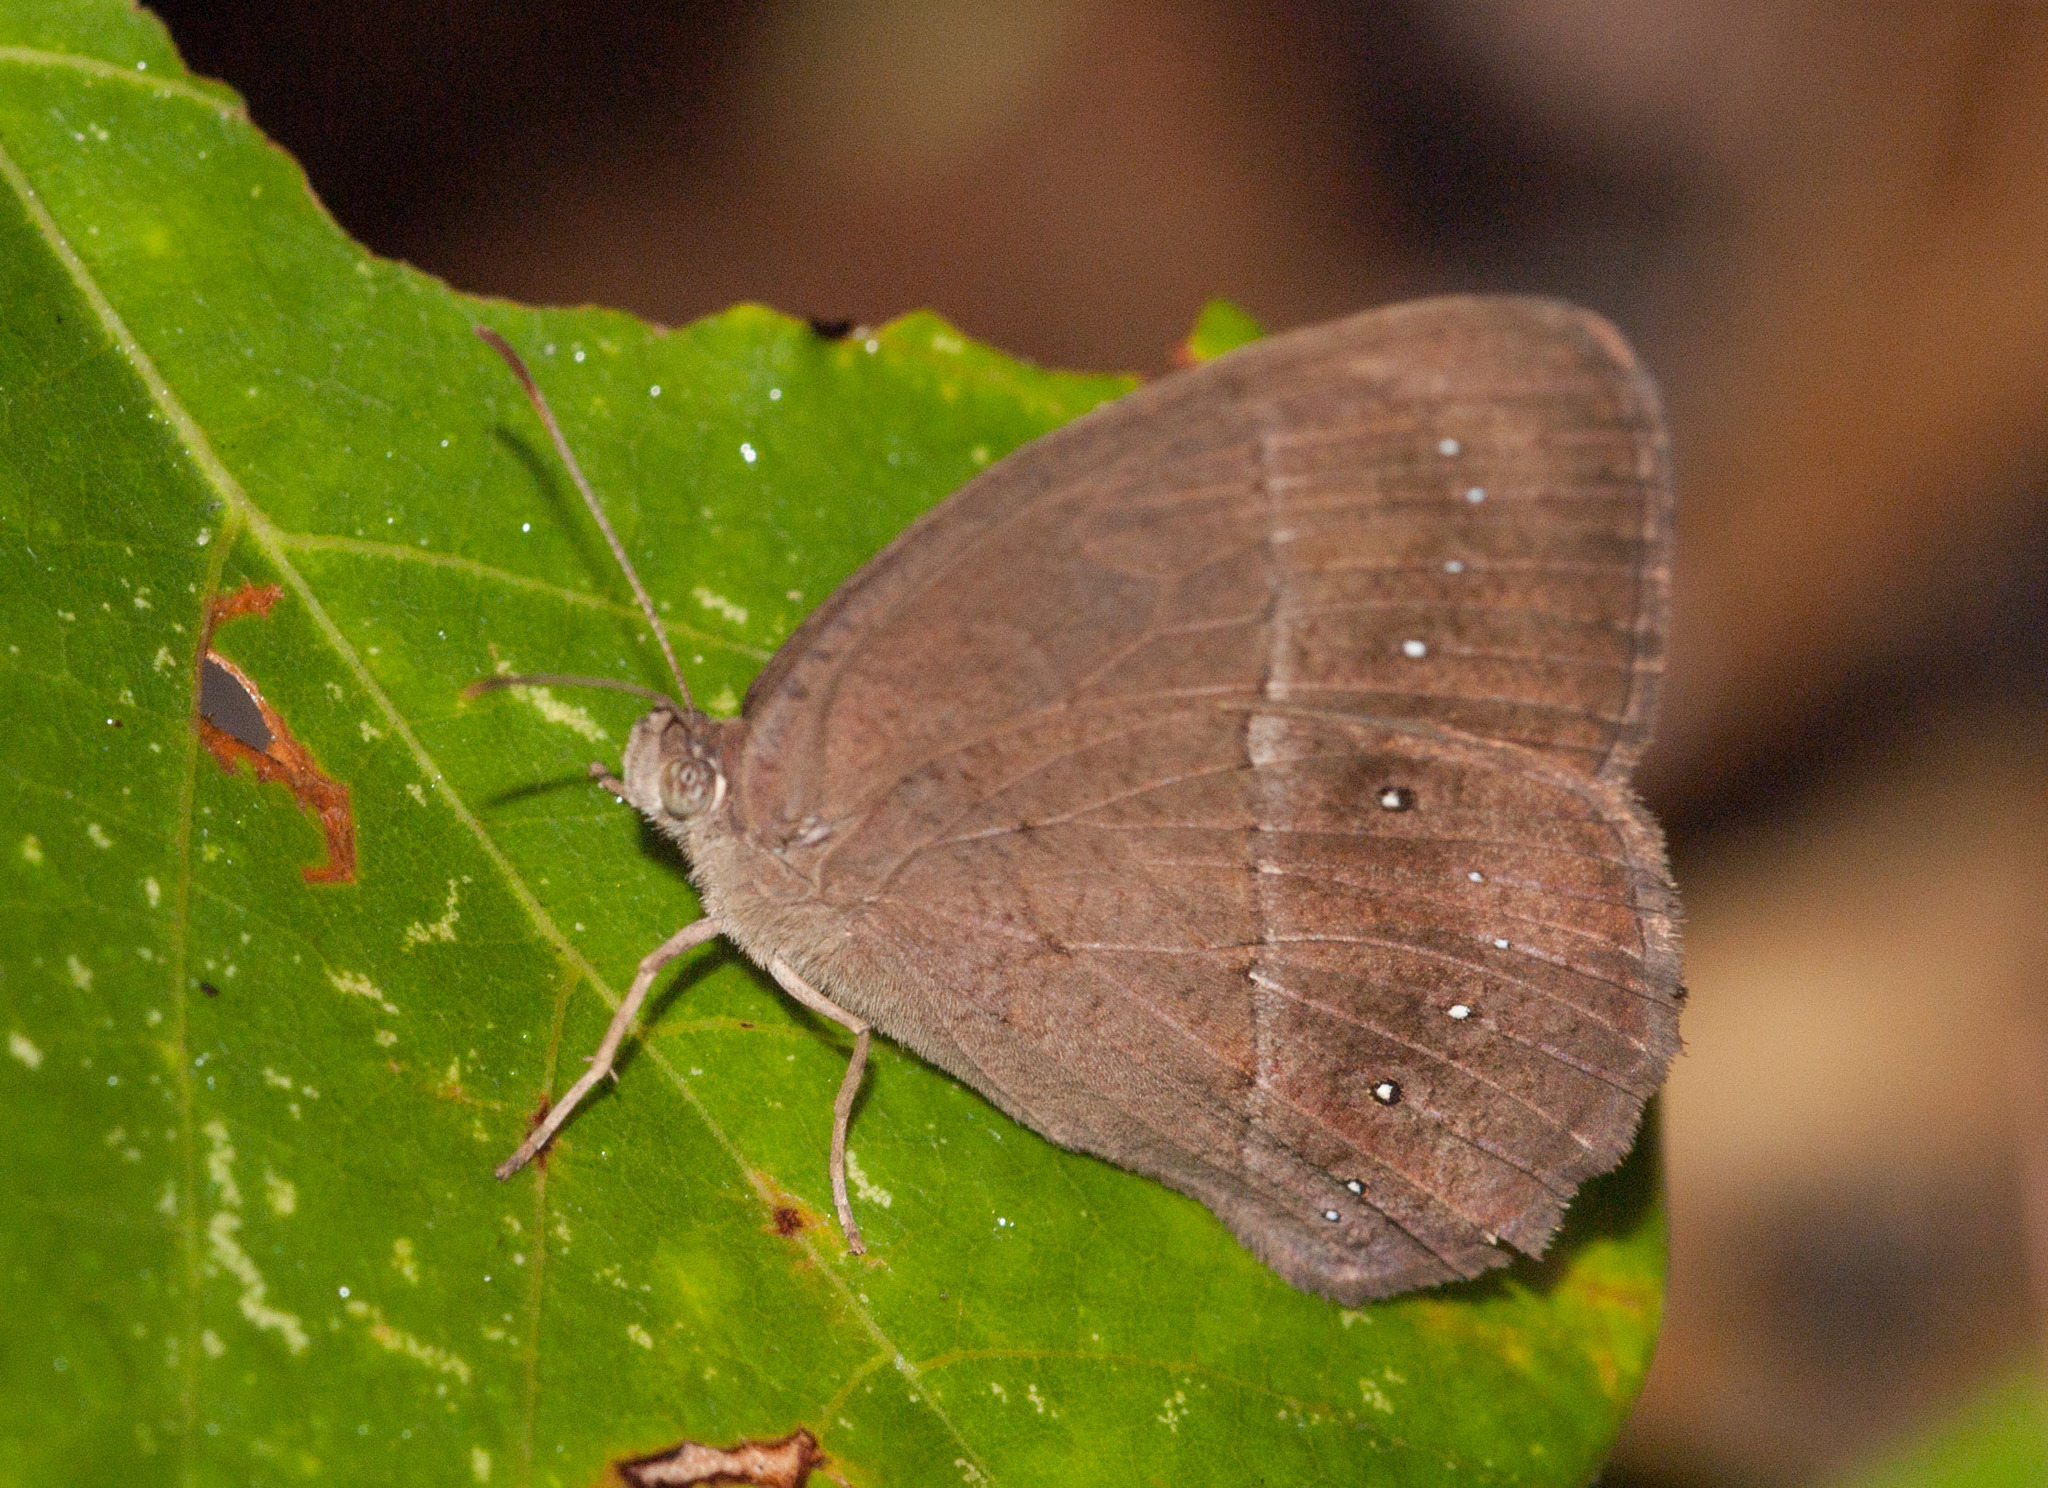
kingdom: Animalia
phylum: Arthropoda
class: Insecta
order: Lepidoptera
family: Nymphalidae
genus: Mycalesis
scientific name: Mycalesis perseus
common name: Dingy bushbrown
